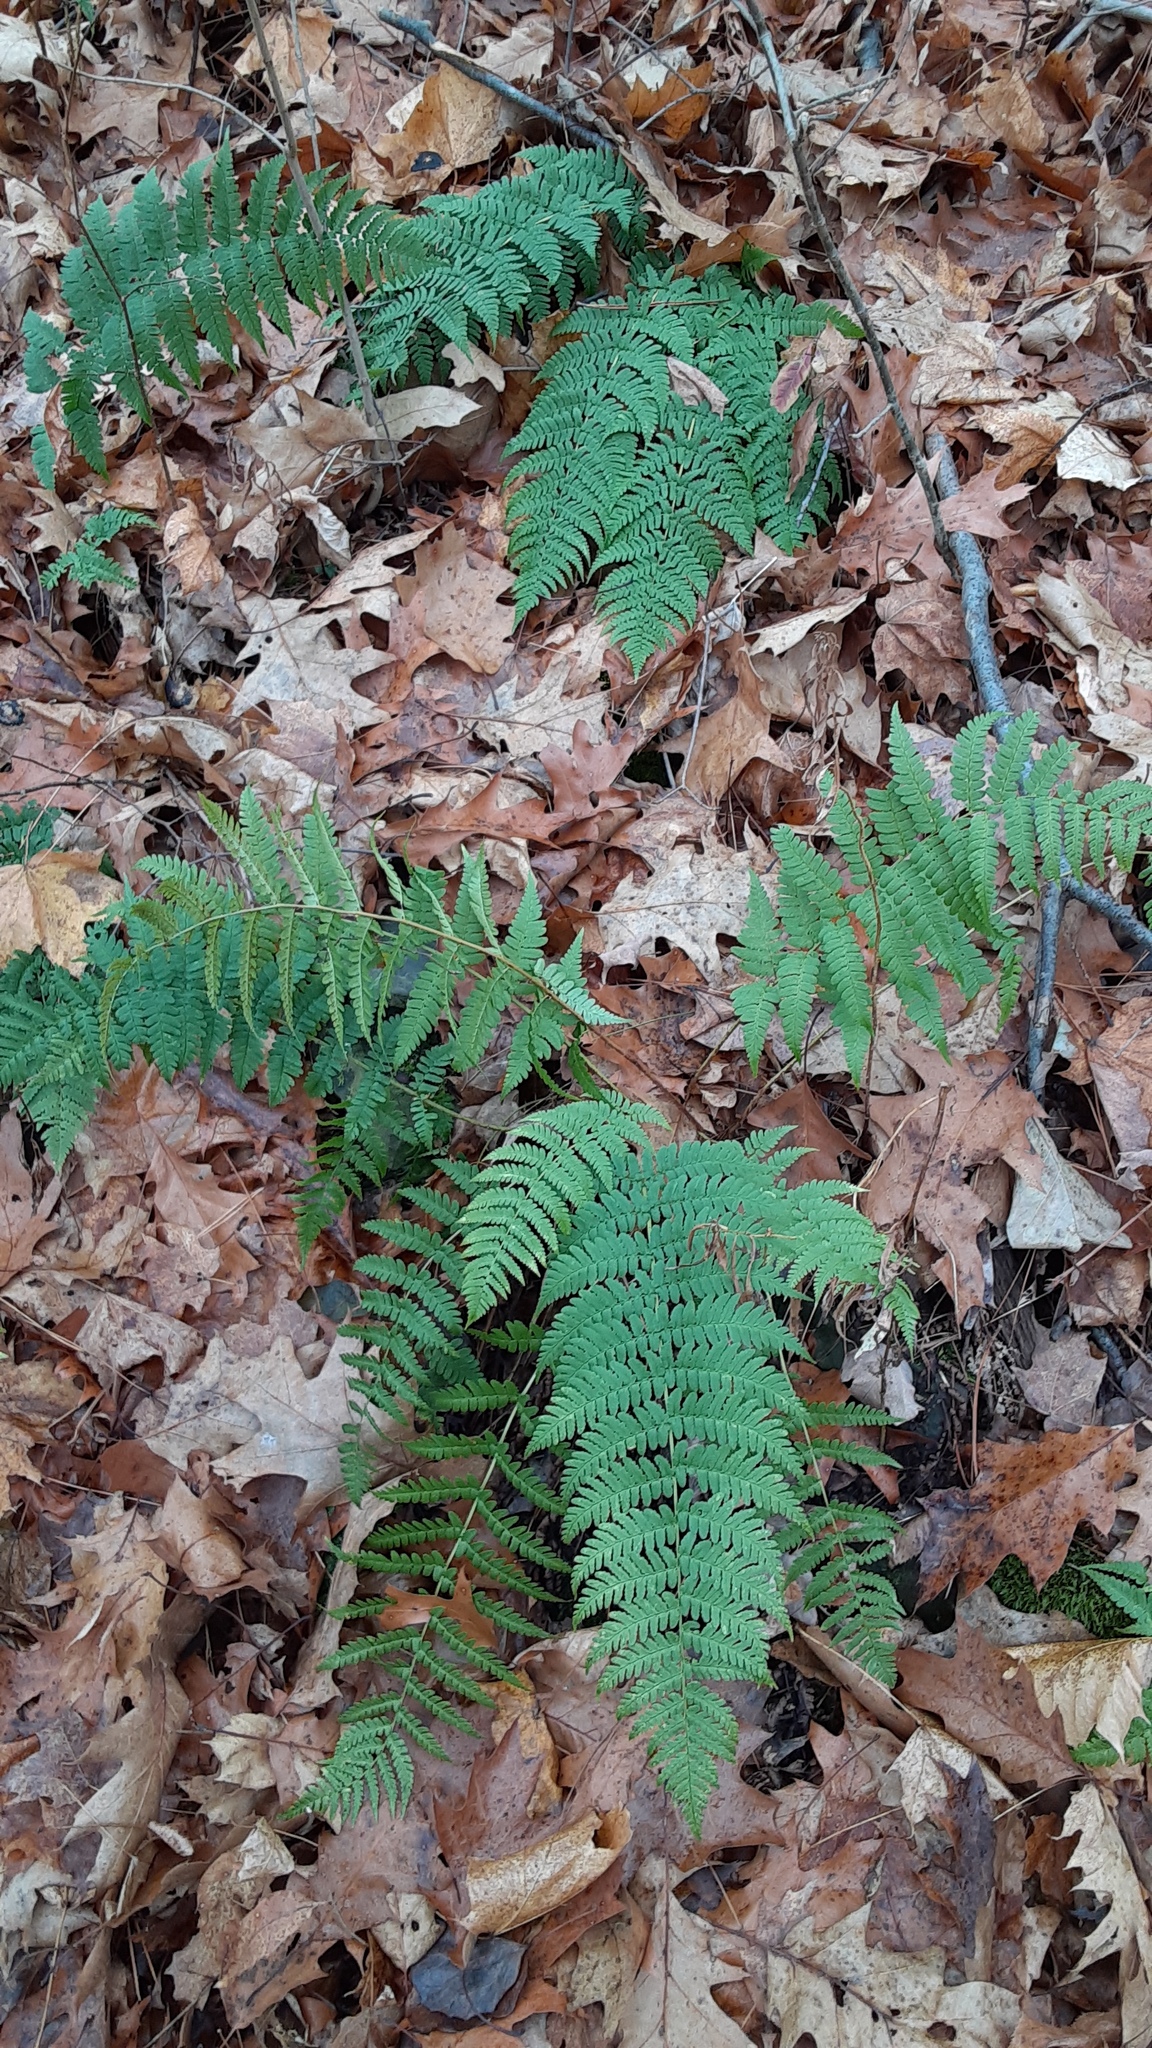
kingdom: Plantae
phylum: Tracheophyta
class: Polypodiopsida
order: Polypodiales
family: Dryopteridaceae
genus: Dryopteris
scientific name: Dryopteris marginalis
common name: Marginal wood fern
